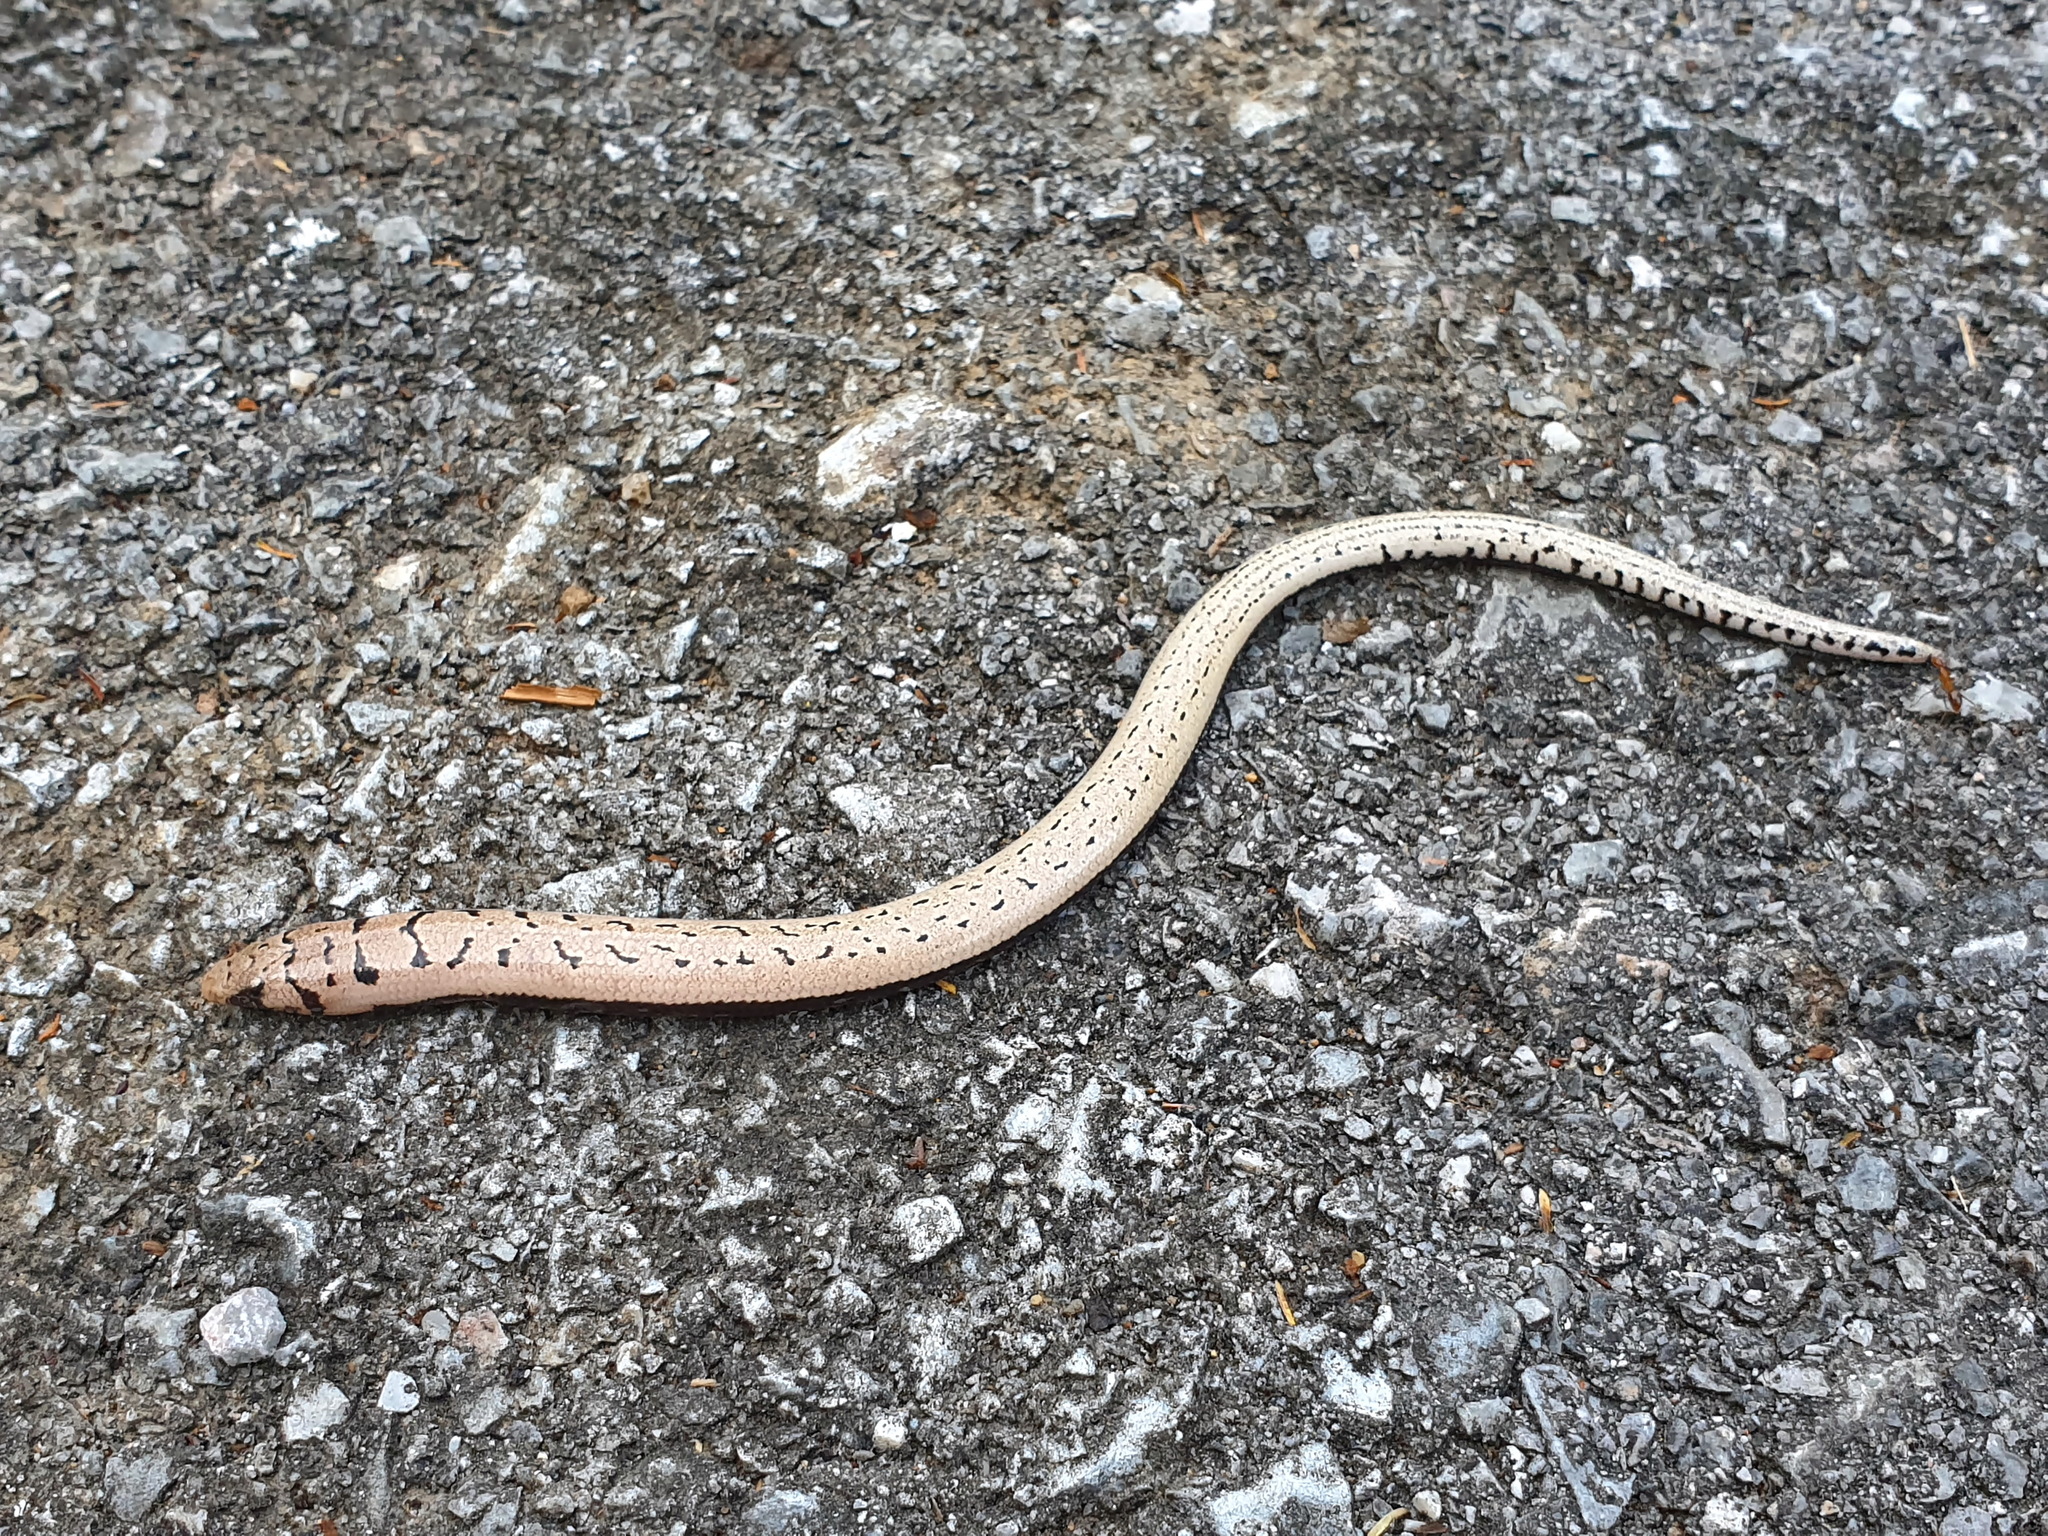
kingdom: Animalia
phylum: Chordata
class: Squamata
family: Scincidae
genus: Jarujinia
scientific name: Jarujinia bipedalis
